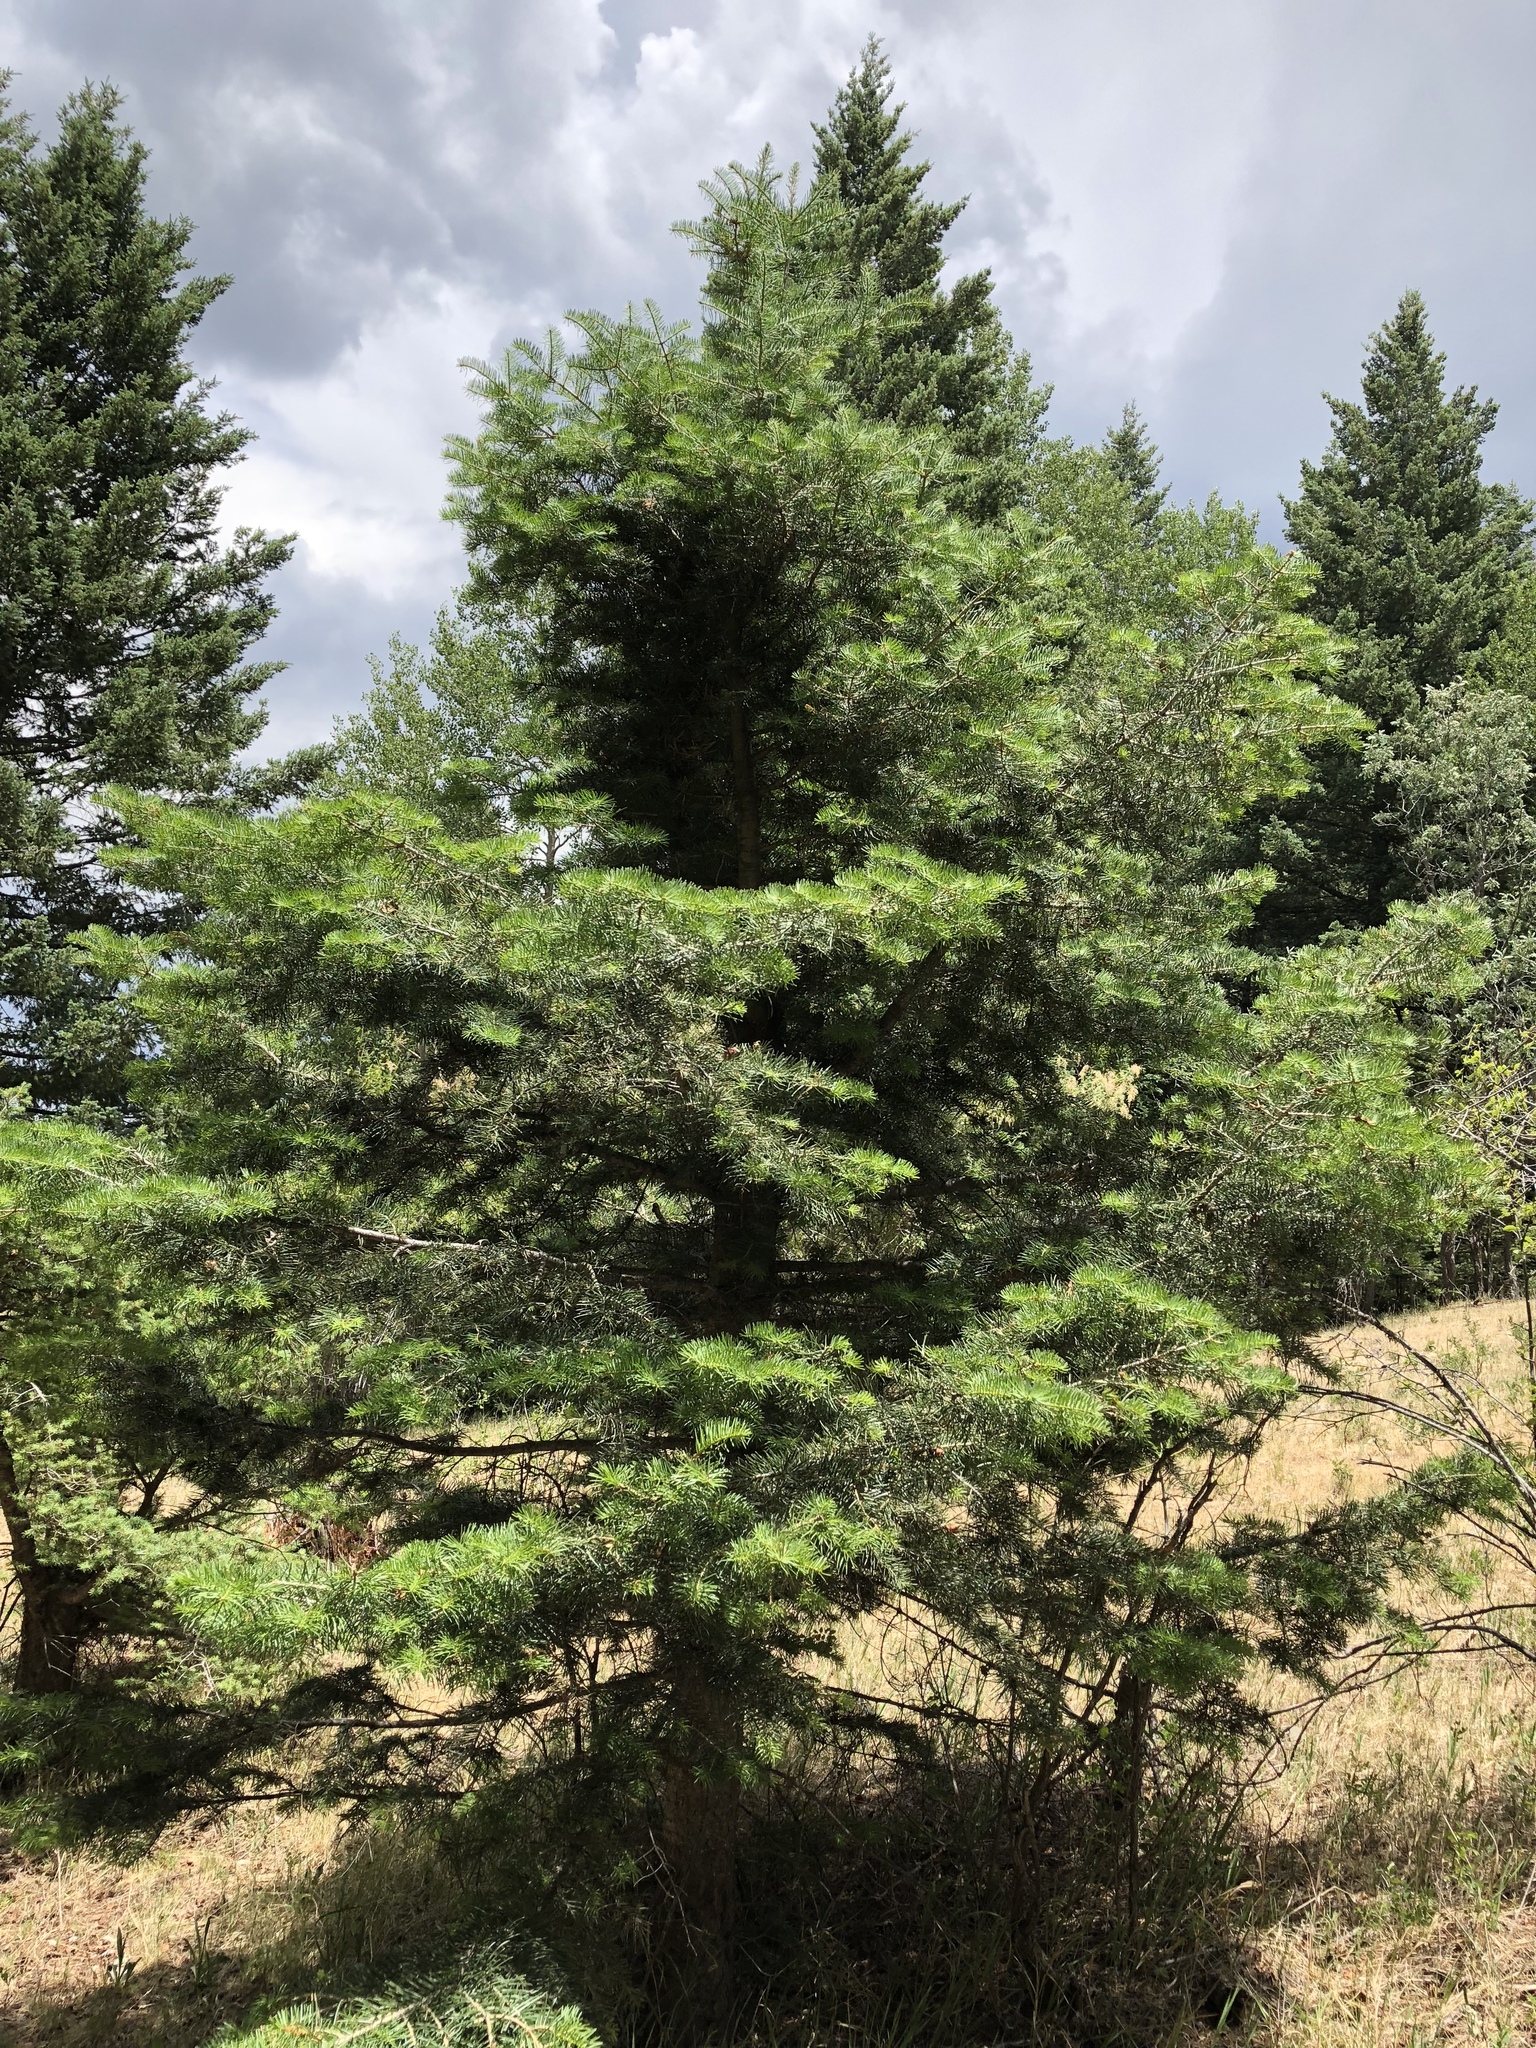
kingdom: Plantae
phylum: Tracheophyta
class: Pinopsida
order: Pinales
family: Pinaceae
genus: Abies
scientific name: Abies concolor
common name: Colorado fir
